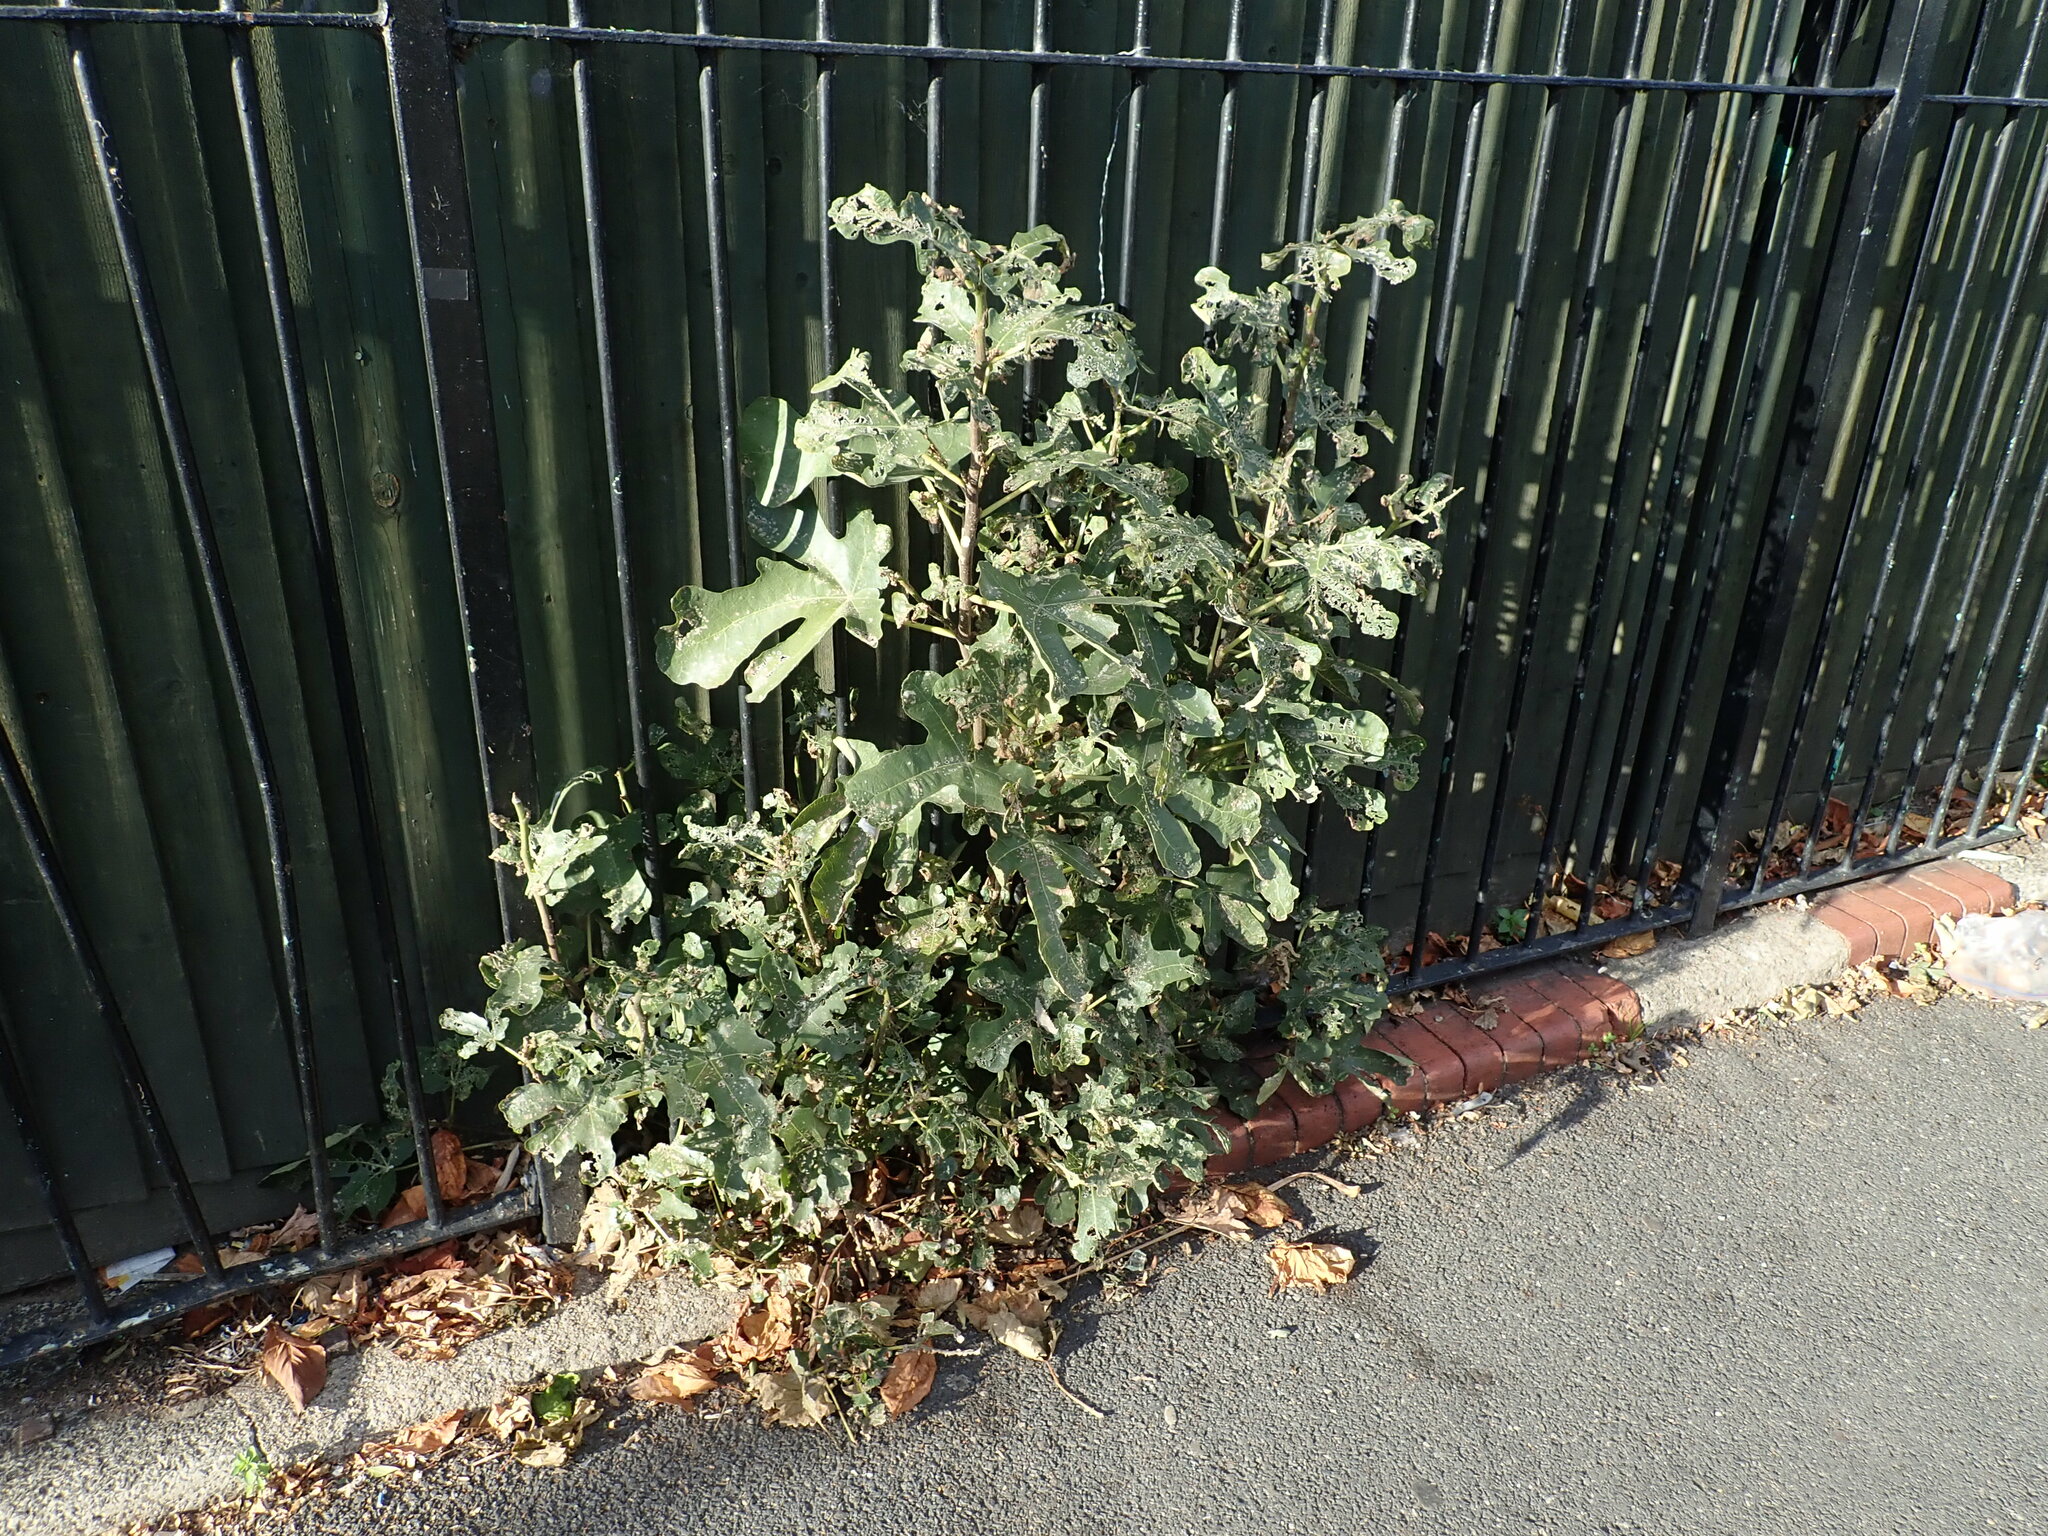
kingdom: Plantae
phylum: Tracheophyta
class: Magnoliopsida
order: Rosales
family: Moraceae
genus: Ficus
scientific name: Ficus carica
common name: Fig
